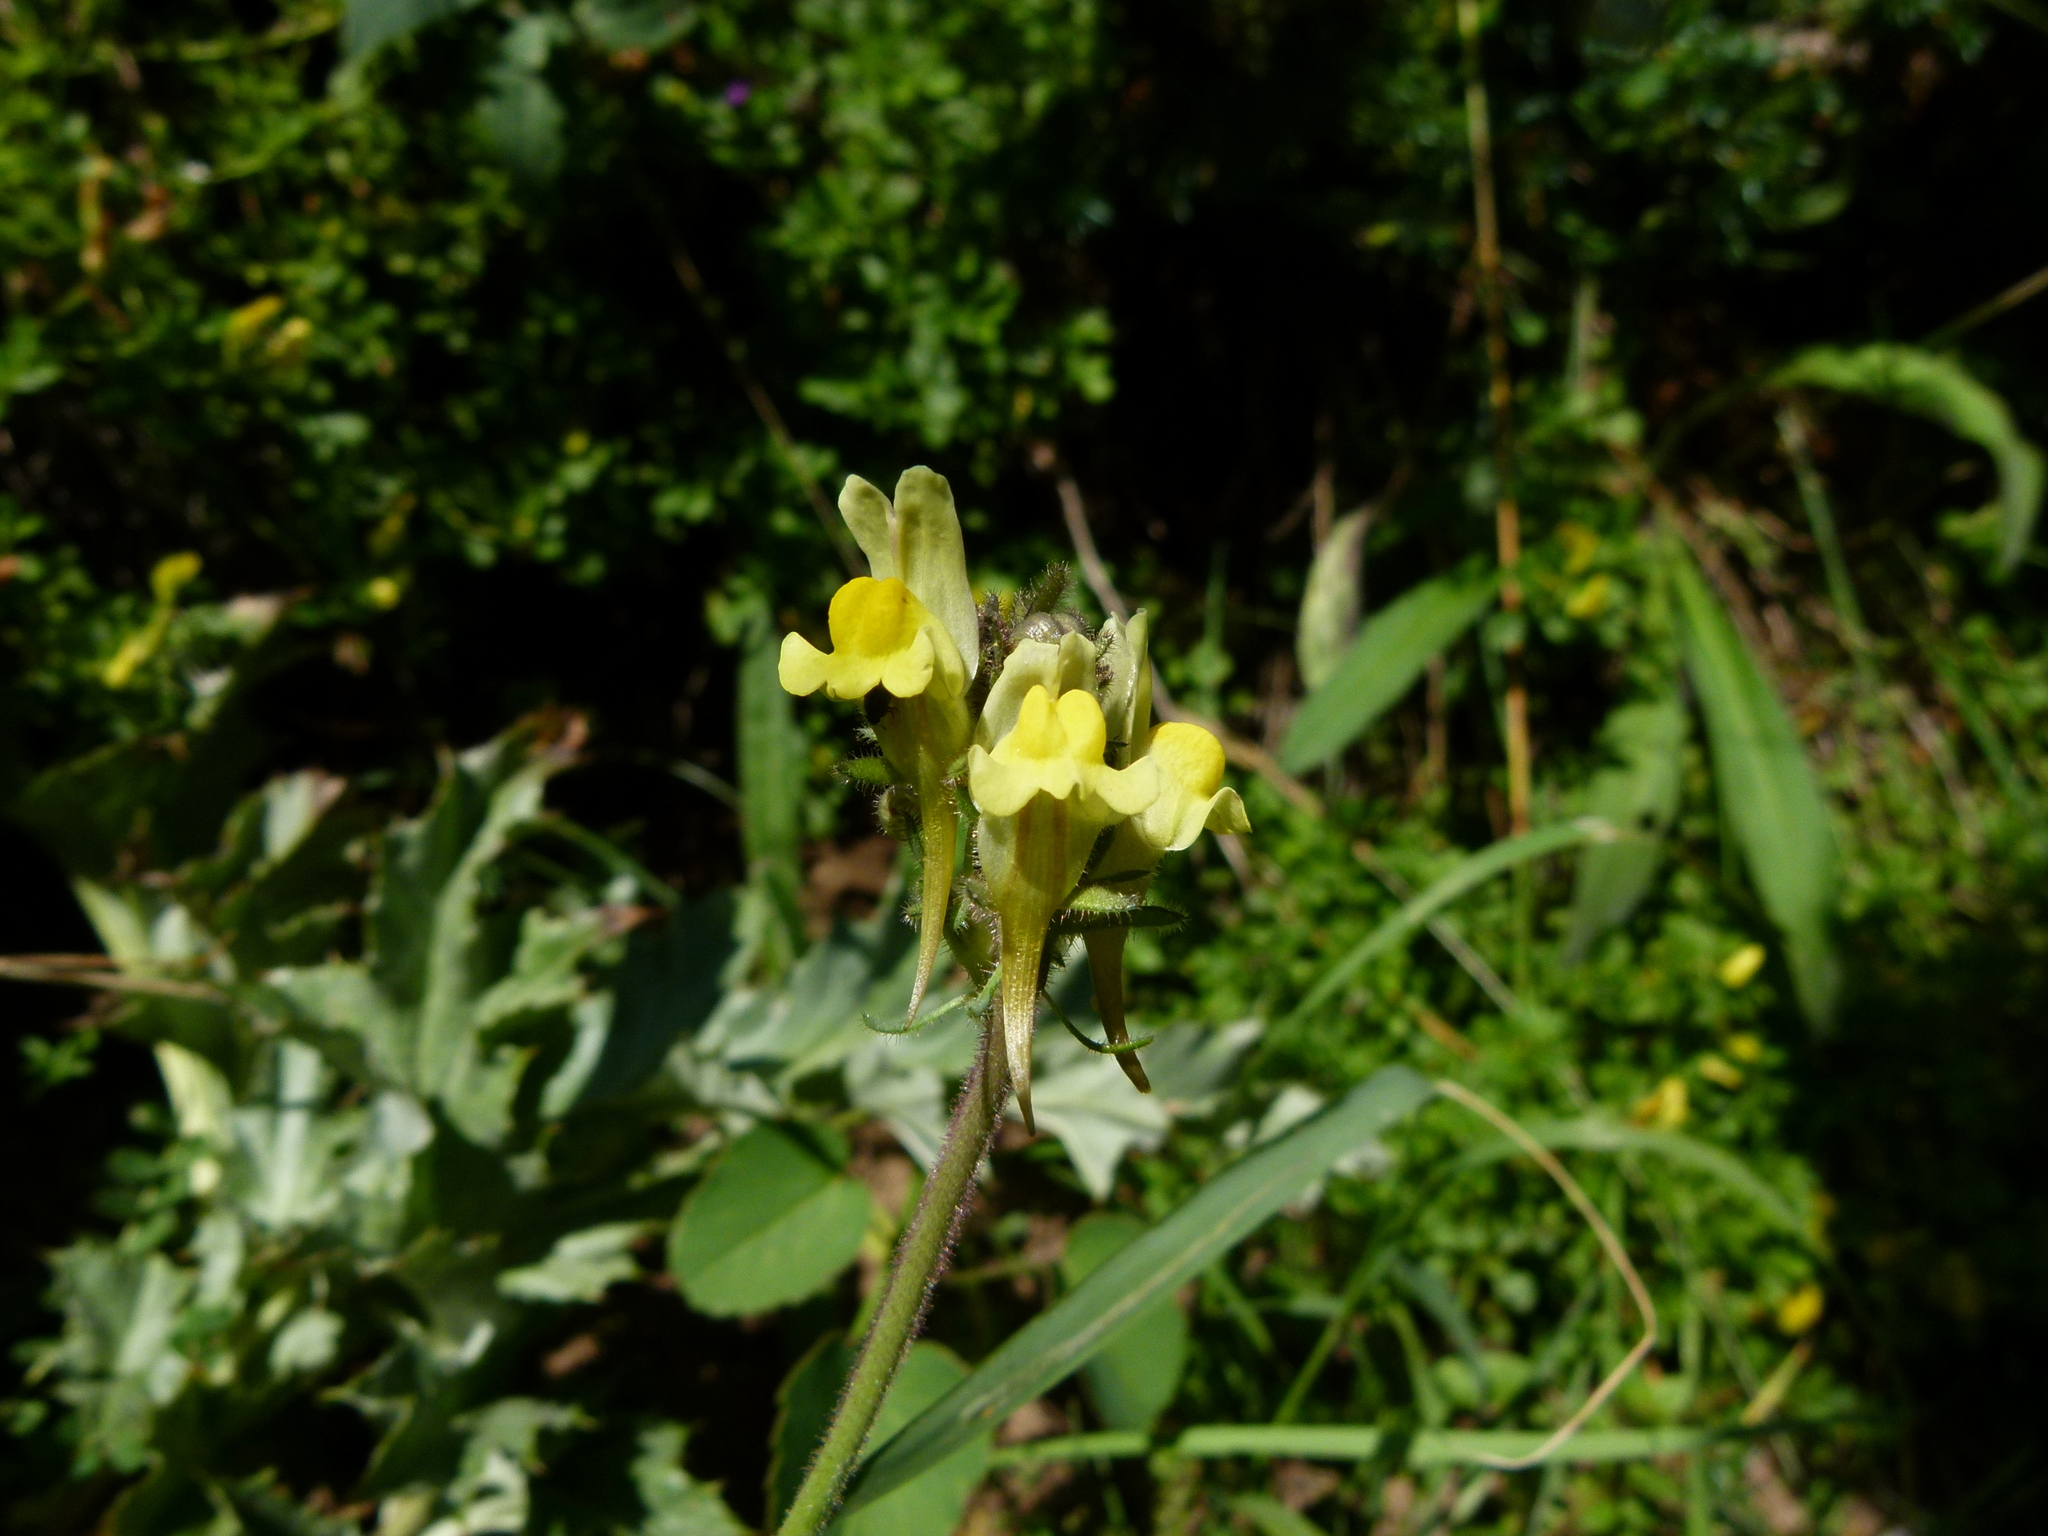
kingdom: Plantae
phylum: Tracheophyta
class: Magnoliopsida
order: Lamiales
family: Plantaginaceae
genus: Linaria
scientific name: Linaria supina
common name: Prostrate toadflax
